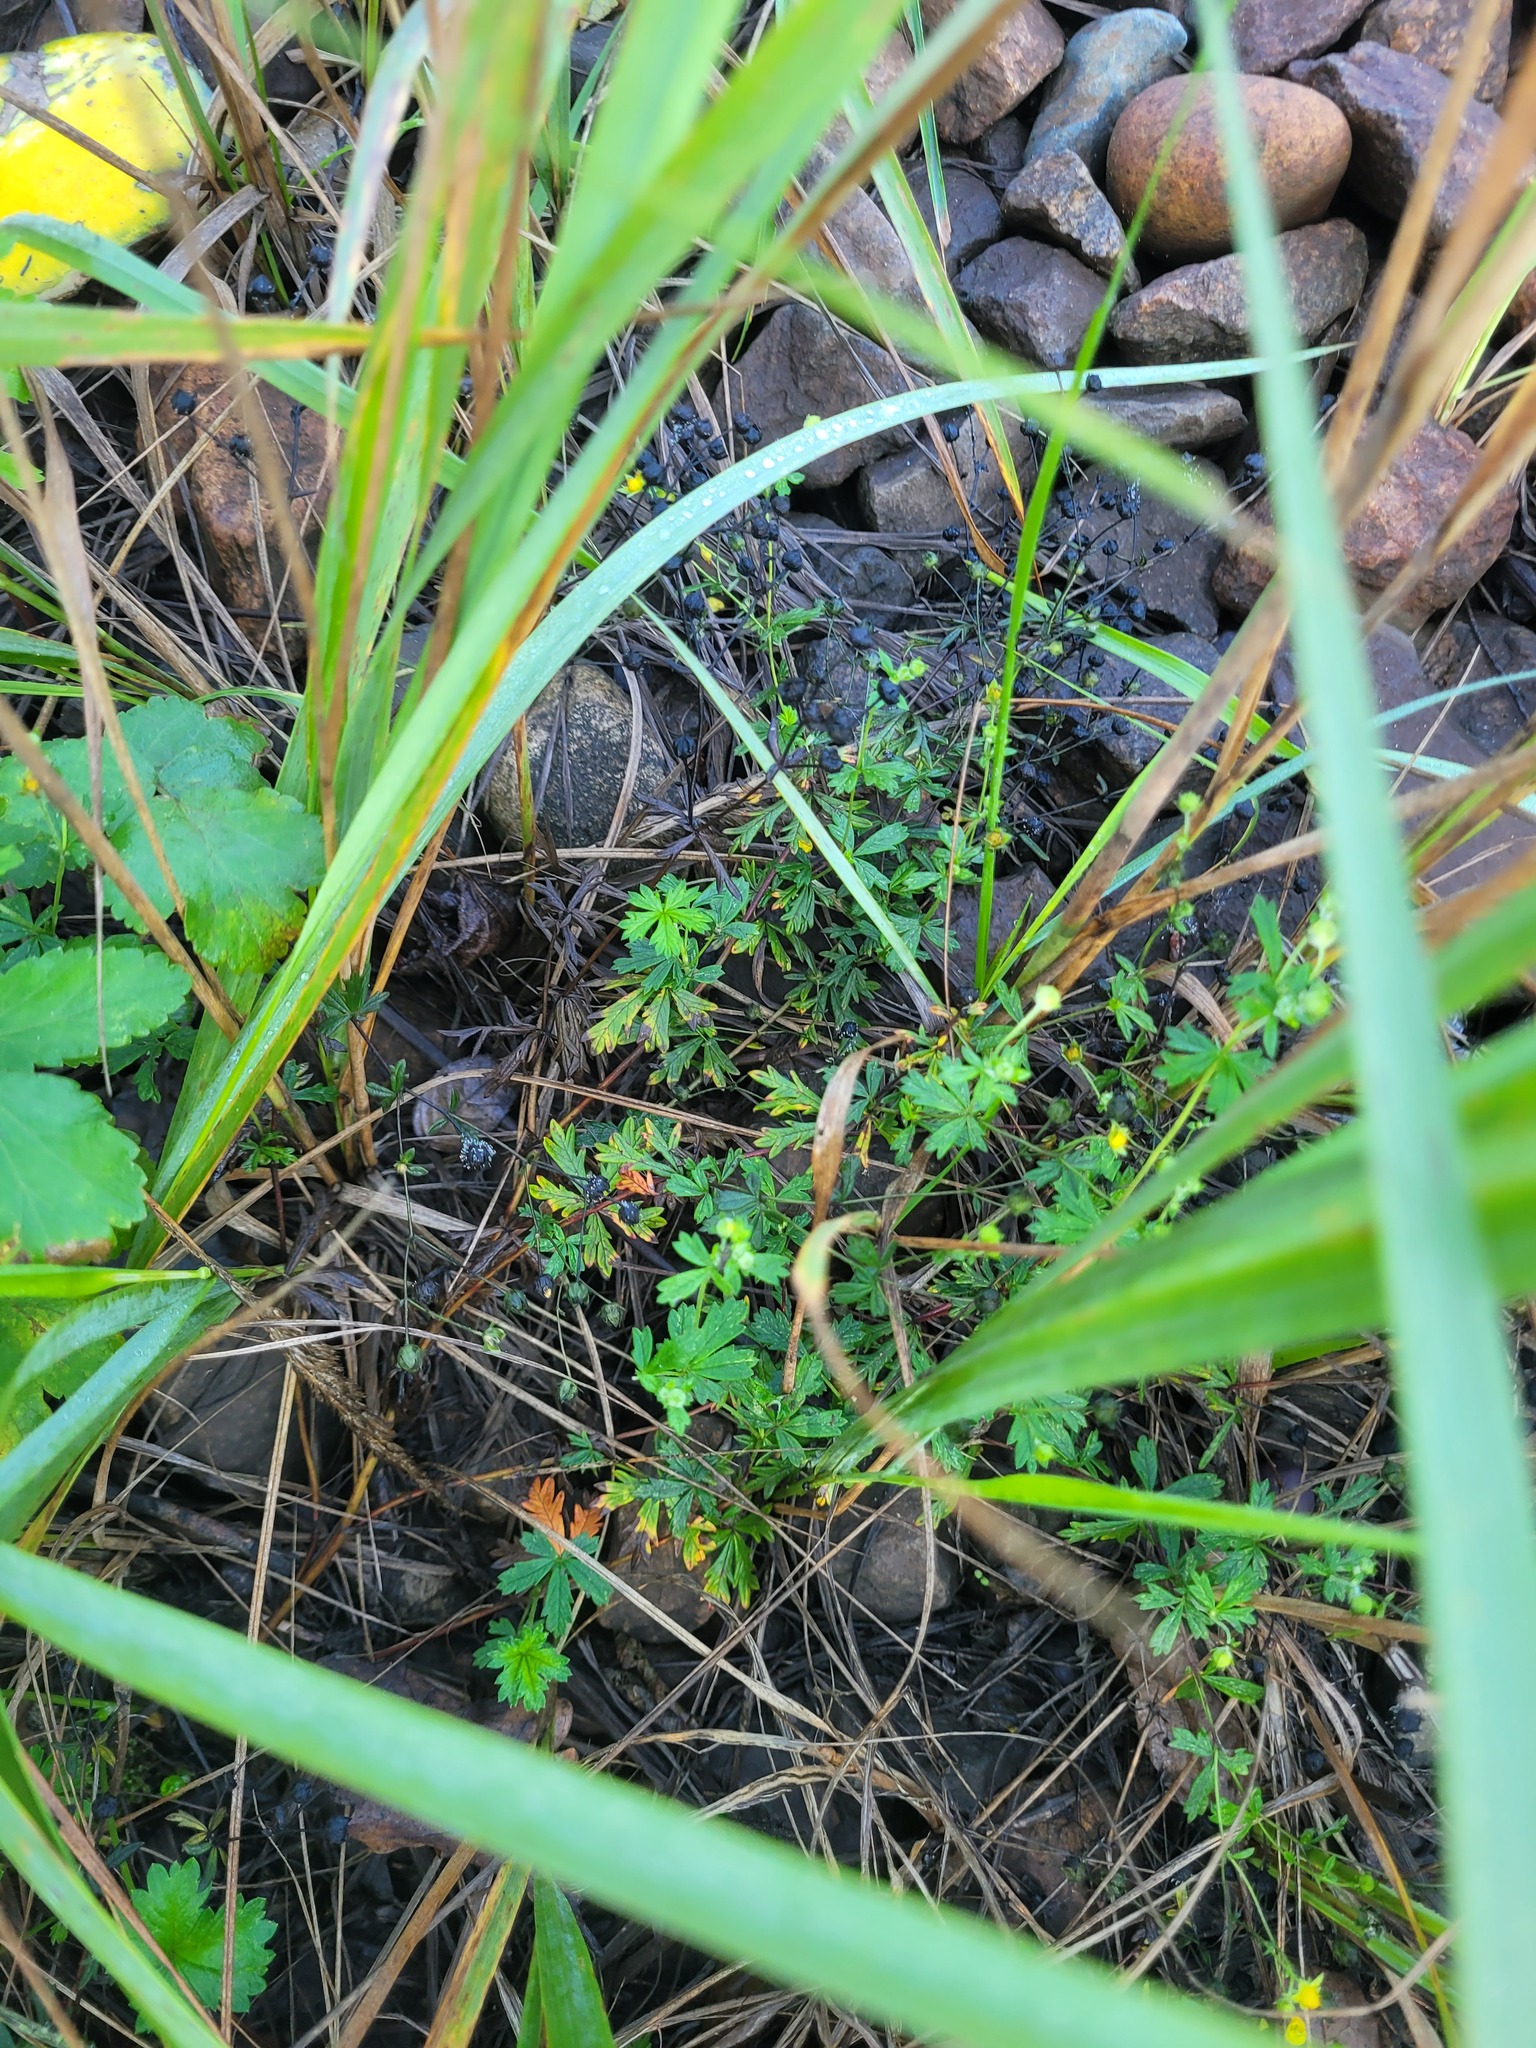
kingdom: Plantae
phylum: Tracheophyta
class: Magnoliopsida
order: Rosales
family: Rosaceae
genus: Potentilla
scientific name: Potentilla argentea
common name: Hoary cinquefoil
